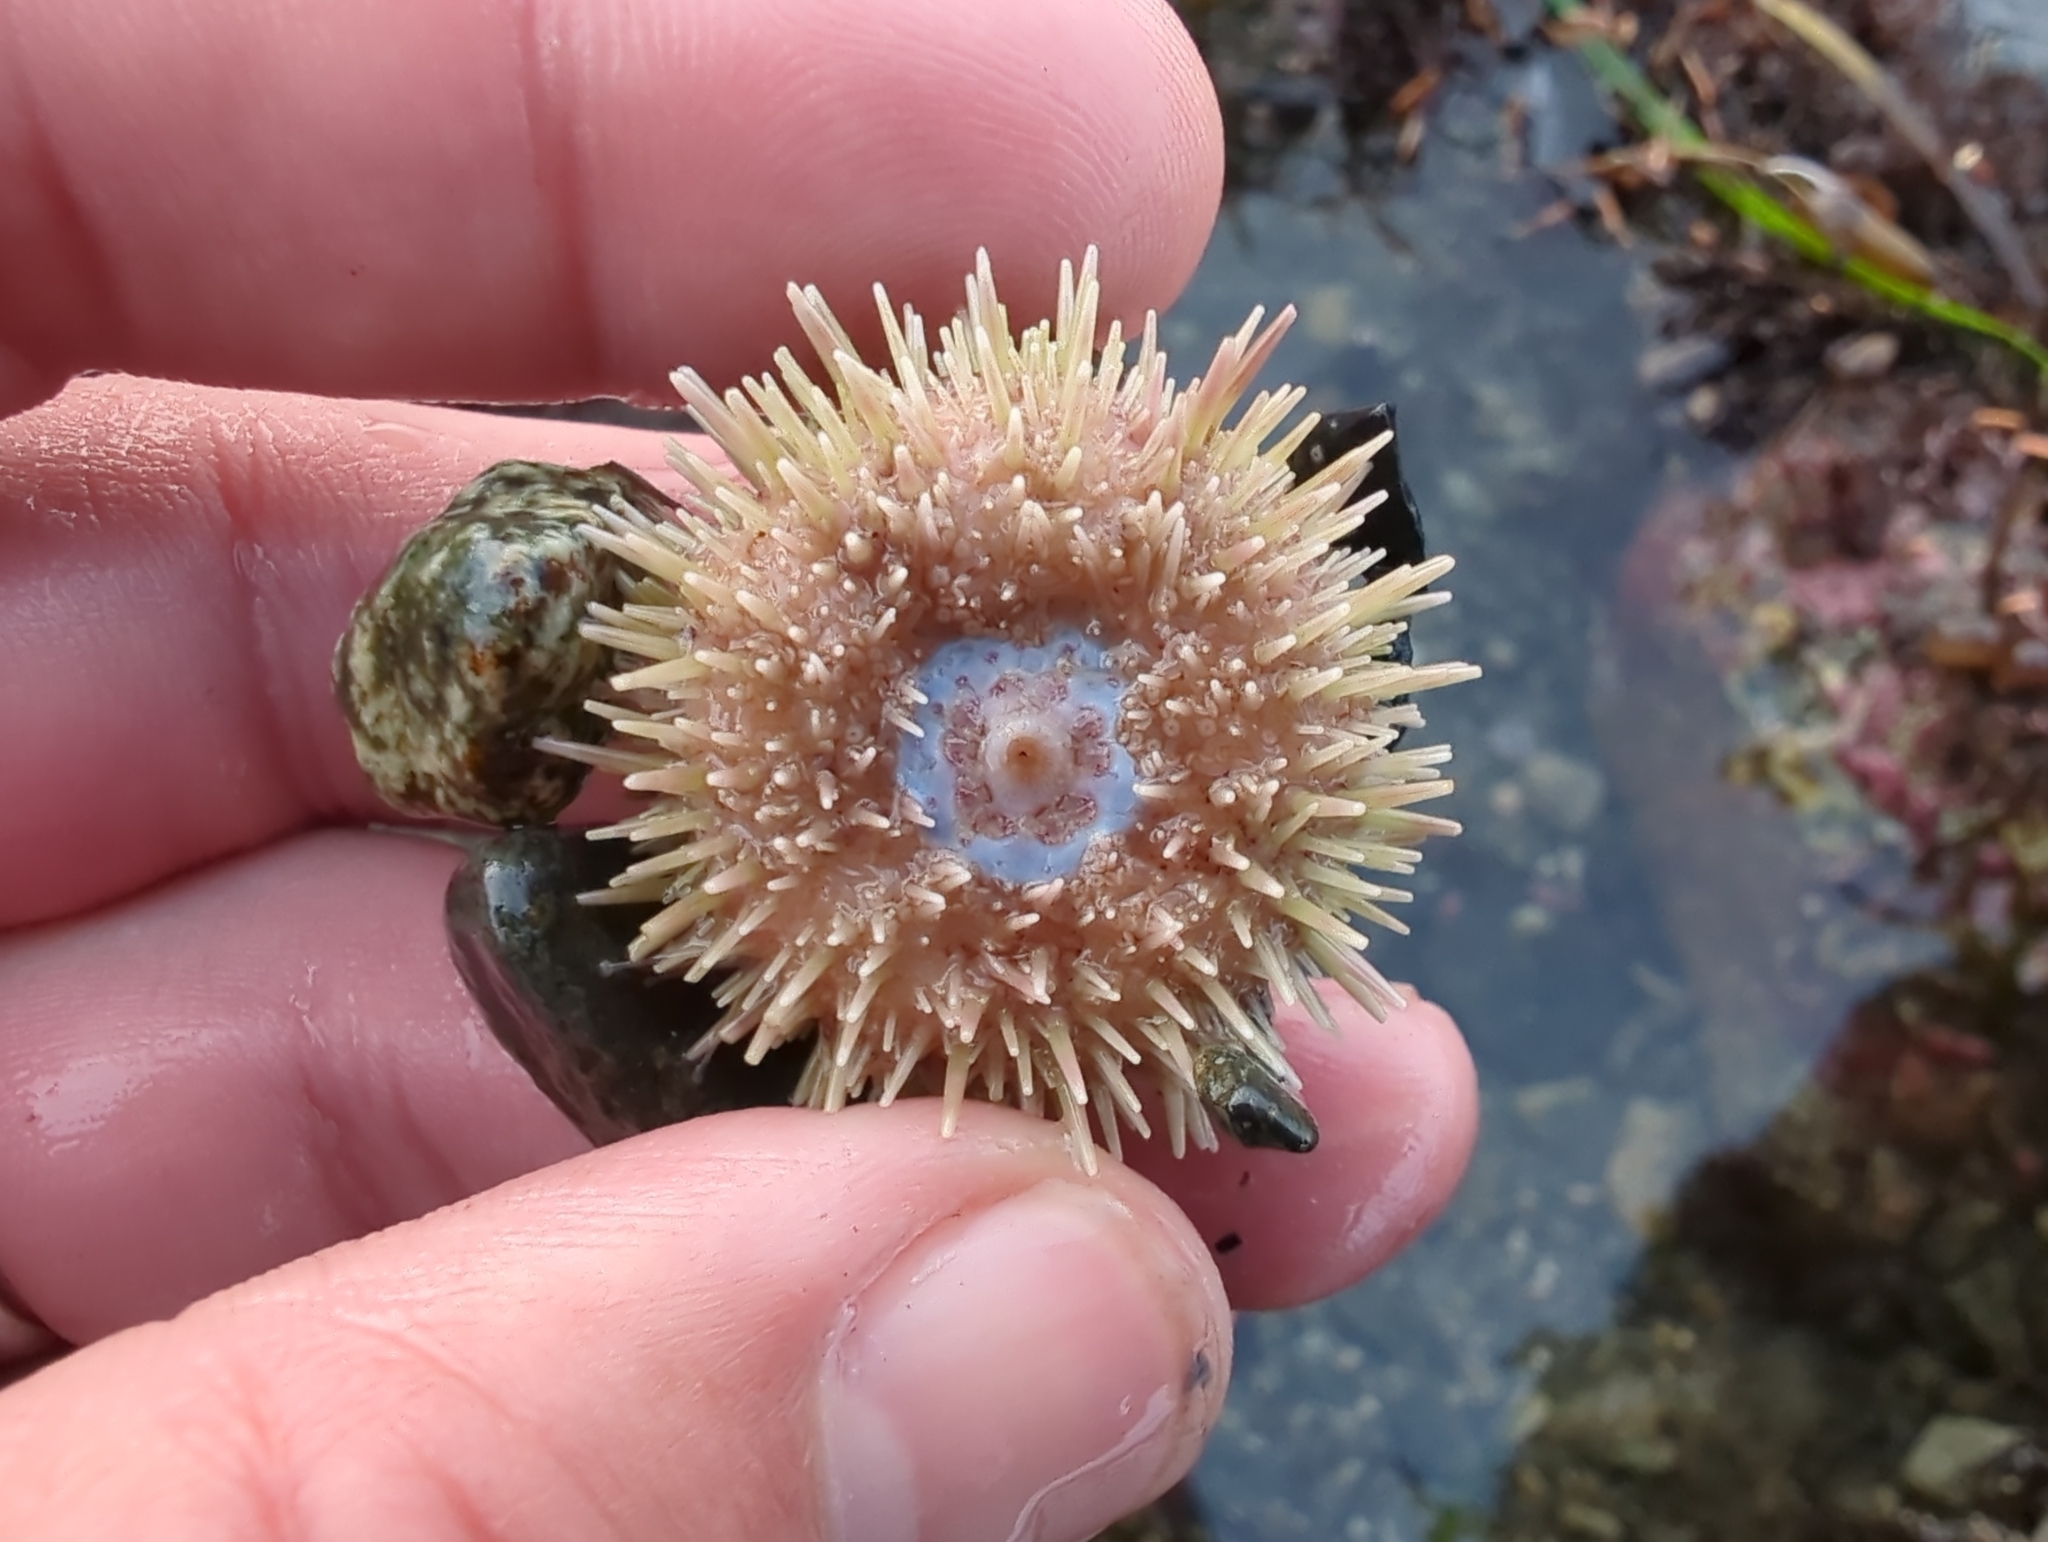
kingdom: Animalia
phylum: Echinodermata
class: Echinoidea
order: Camarodonta
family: Strongylocentrotidae
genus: Strongylocentrotus
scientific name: Strongylocentrotus droebachiensis
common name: Northern sea urchin
